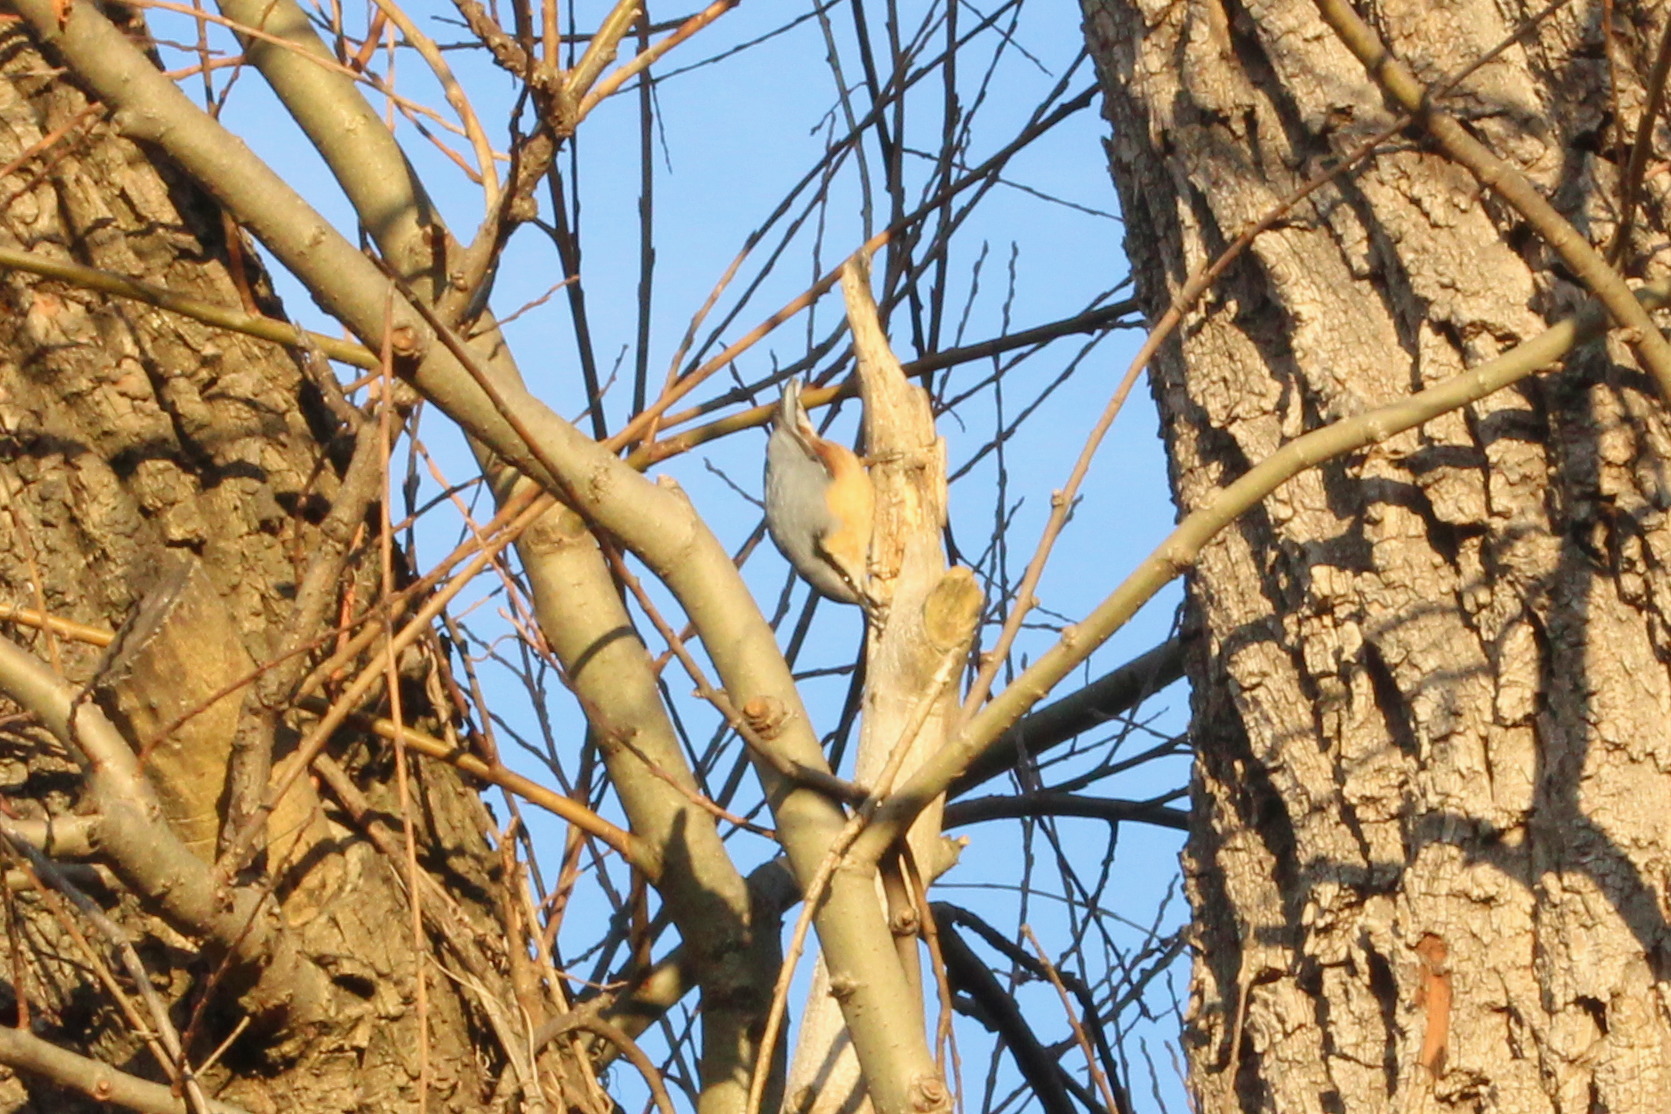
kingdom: Animalia
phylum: Chordata
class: Aves
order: Passeriformes
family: Sittidae
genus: Sitta
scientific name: Sitta europaea
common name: Eurasian nuthatch
